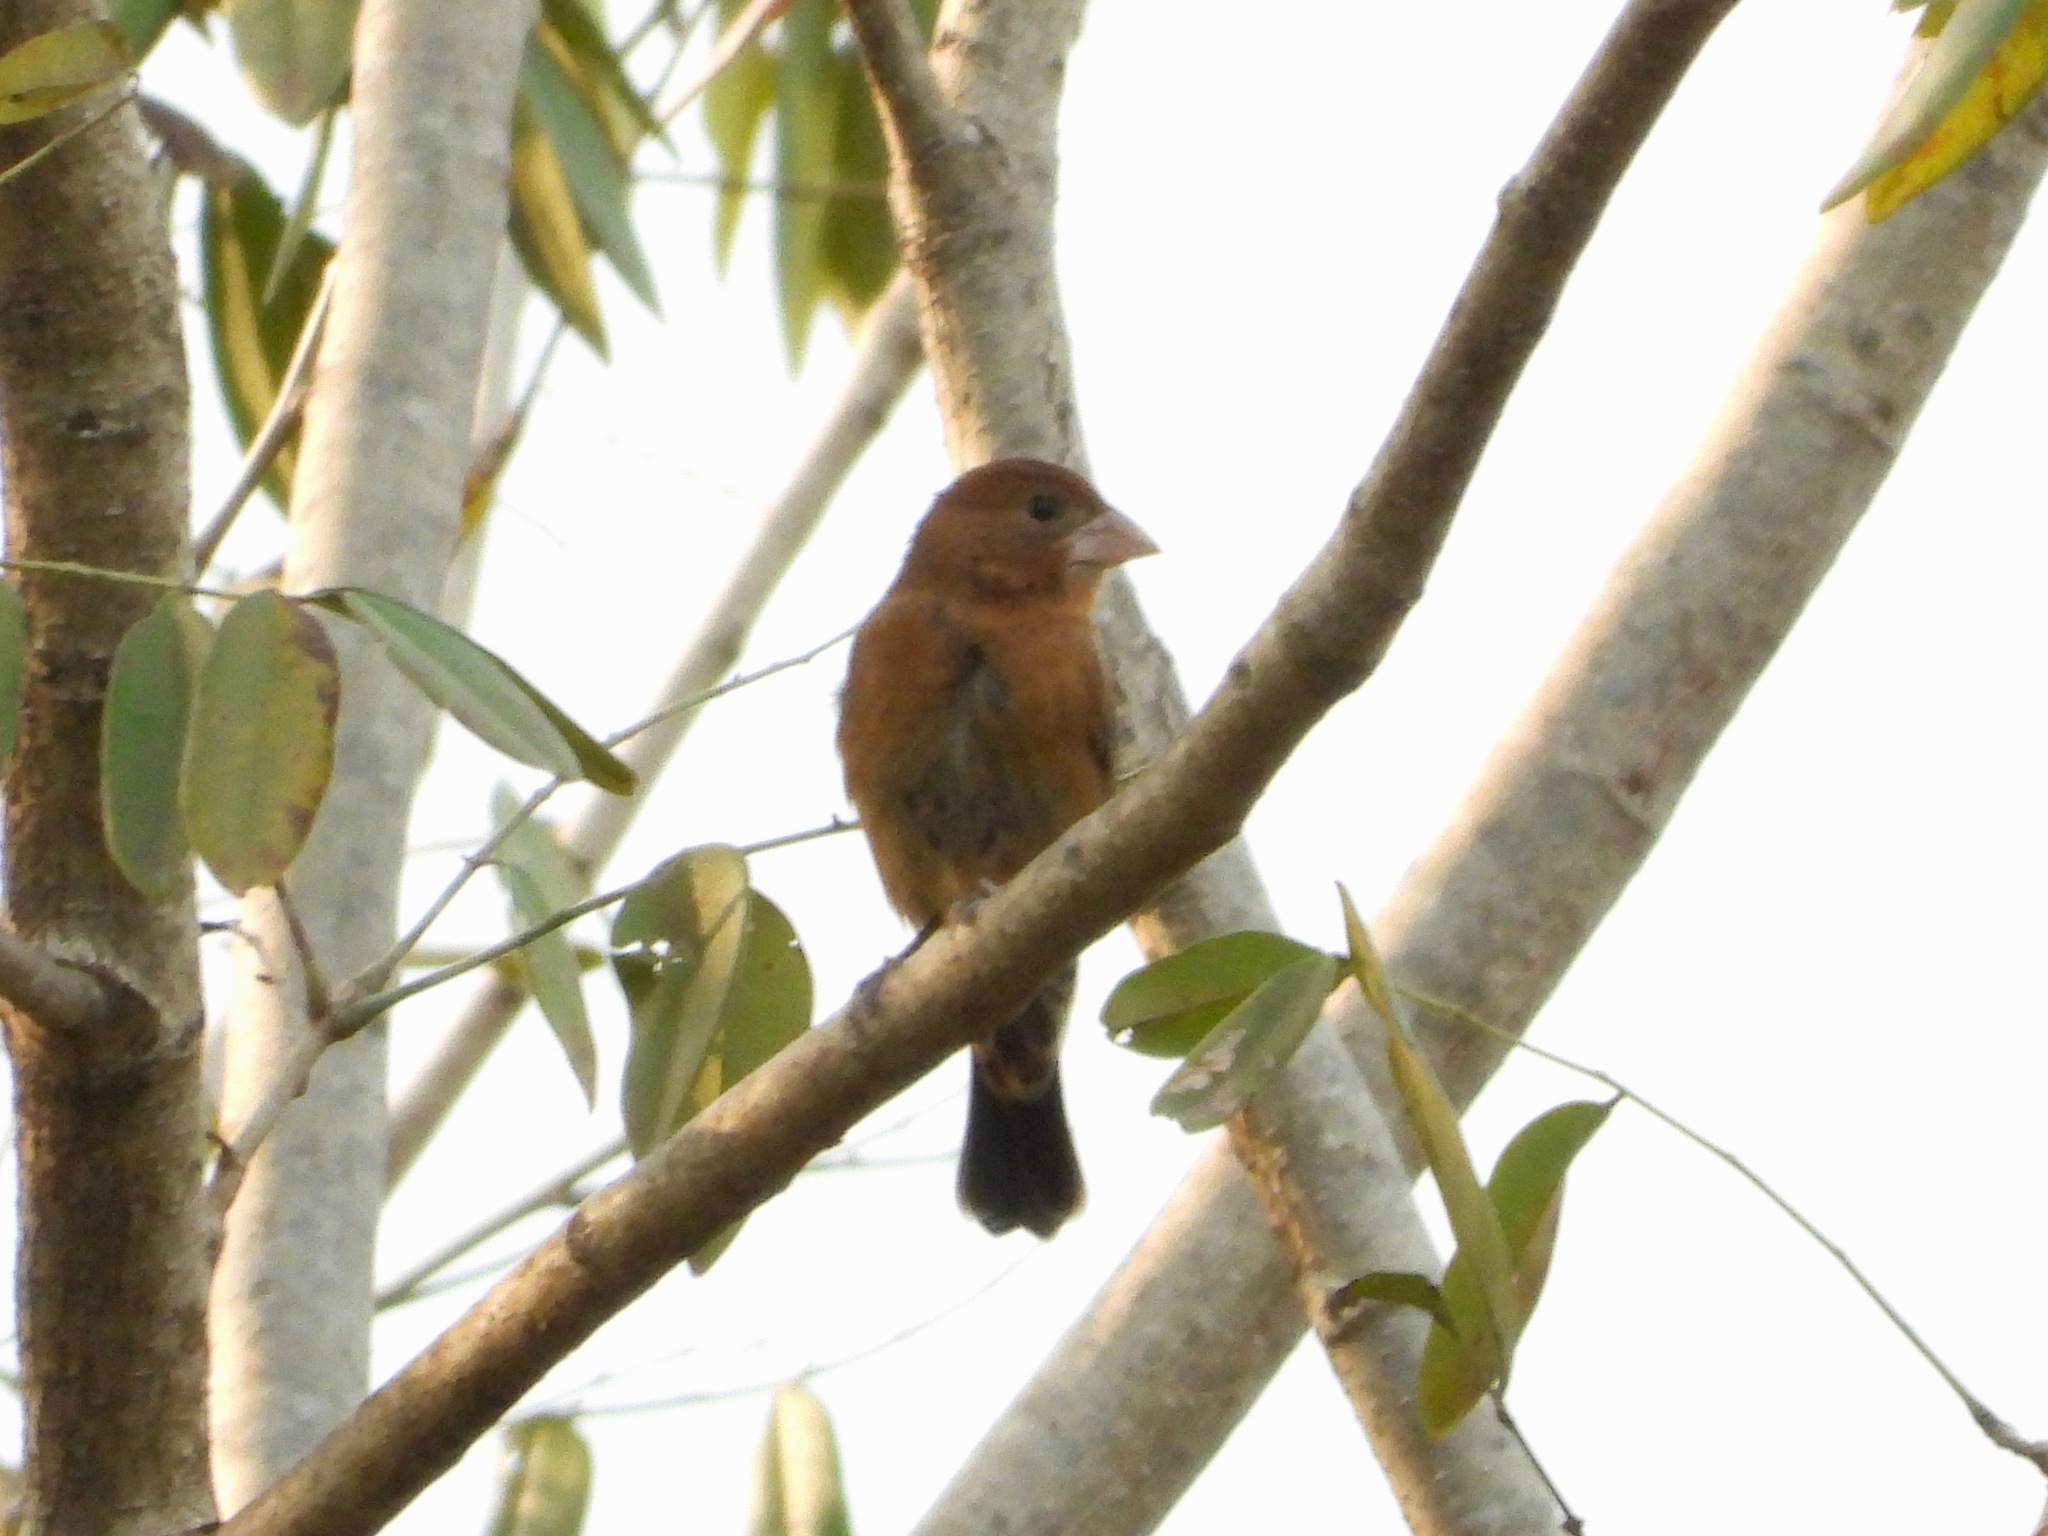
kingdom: Animalia
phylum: Chordata
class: Aves
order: Passeriformes
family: Cardinalidae
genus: Passerina
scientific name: Passerina caerulea
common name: Blue grosbeak
